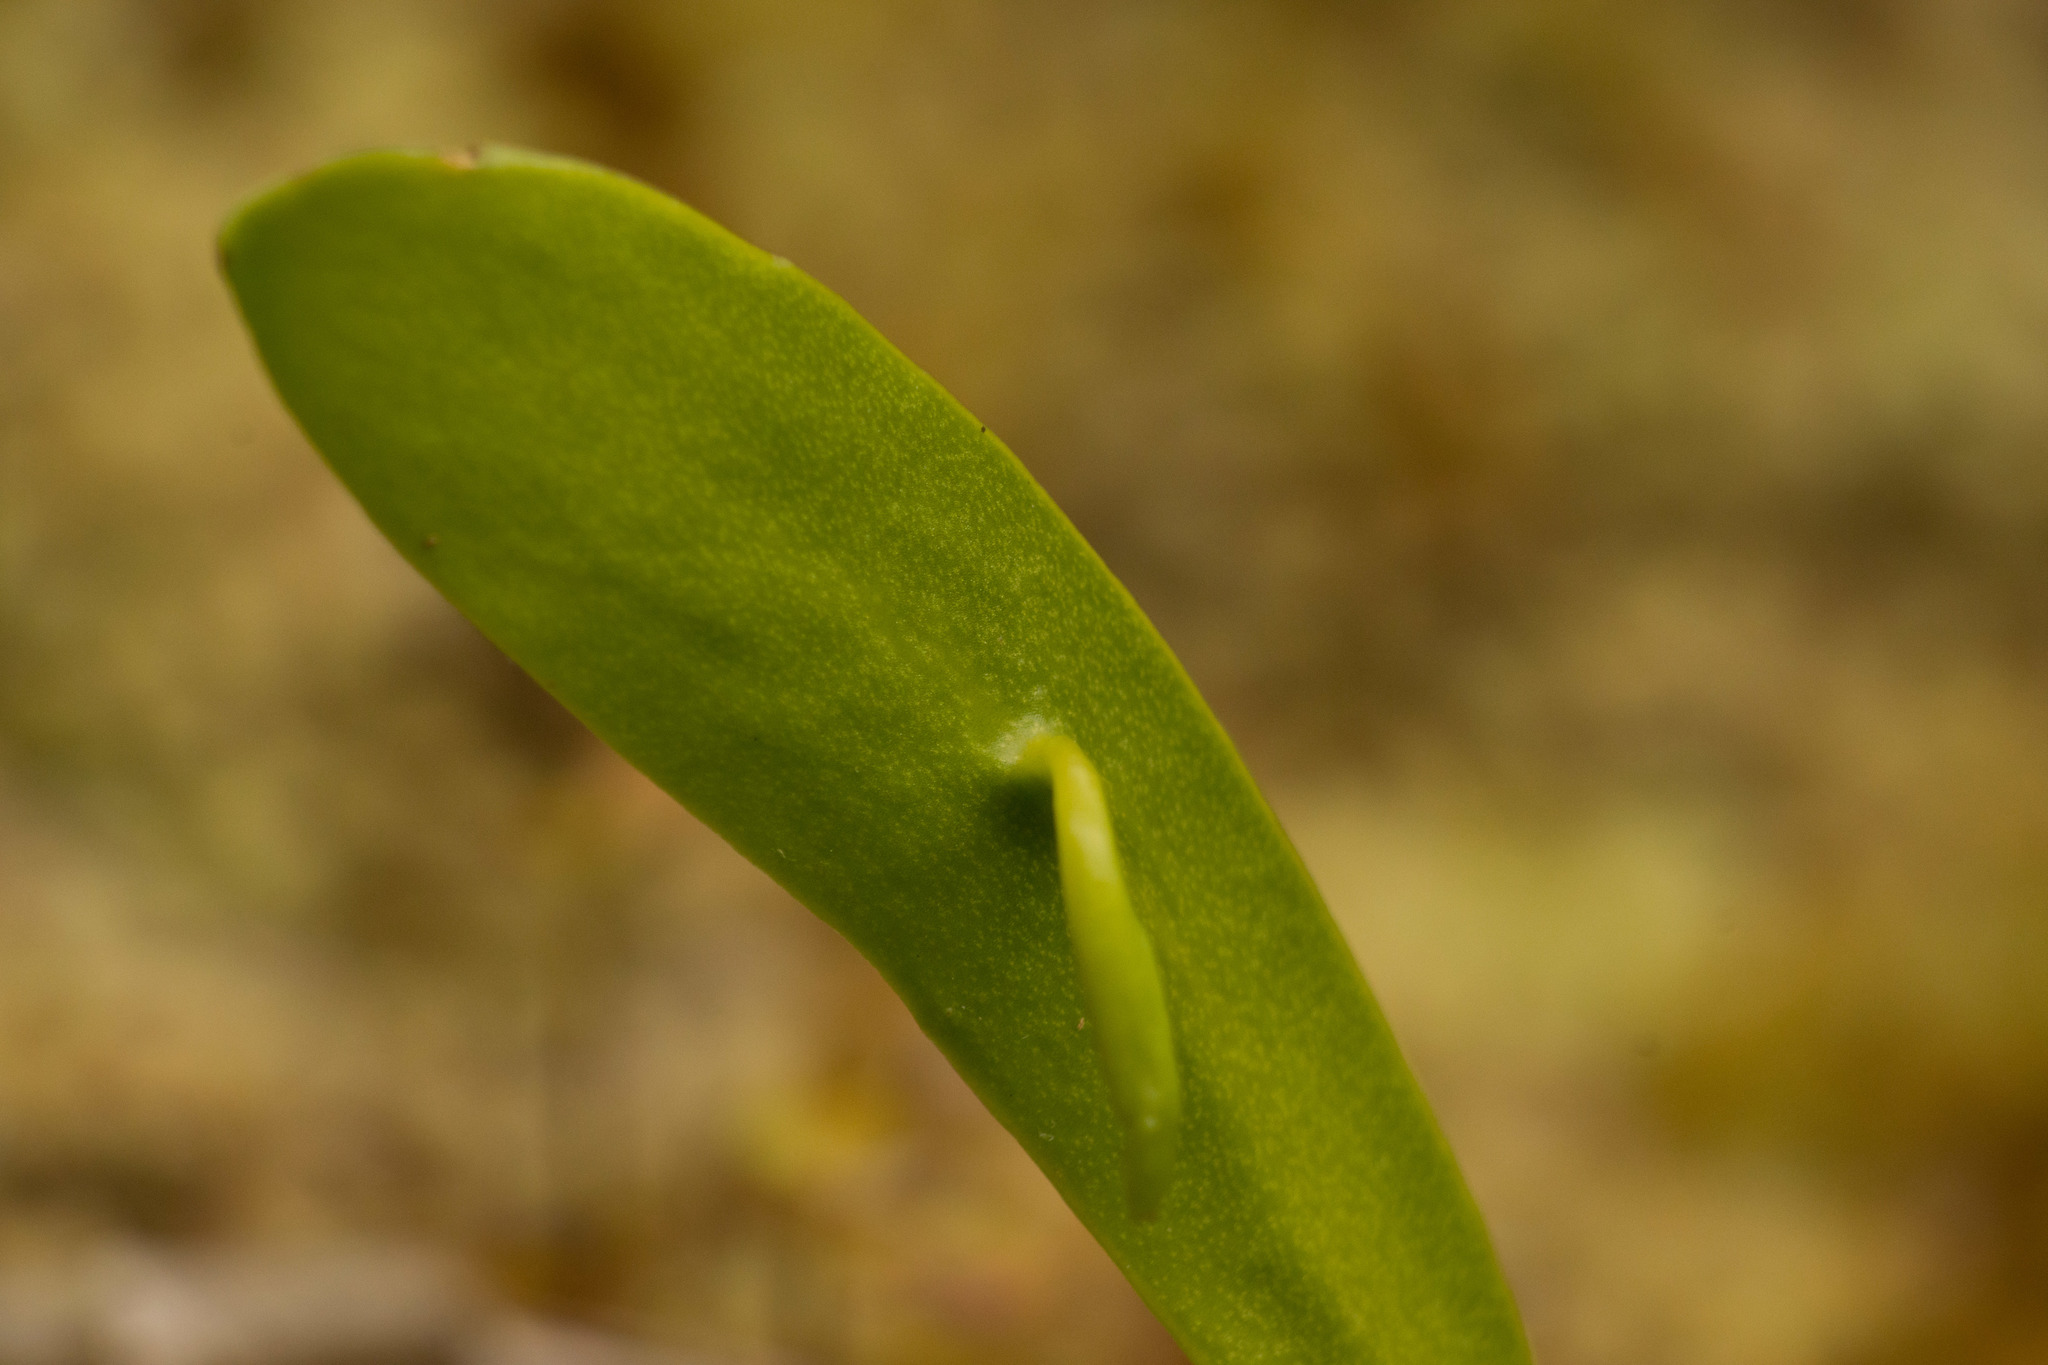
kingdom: Plantae
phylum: Tracheophyta
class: Polypodiopsida
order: Ophioglossales
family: Ophioglossaceae
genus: Ophioderma
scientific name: Ophioderma falcatum
